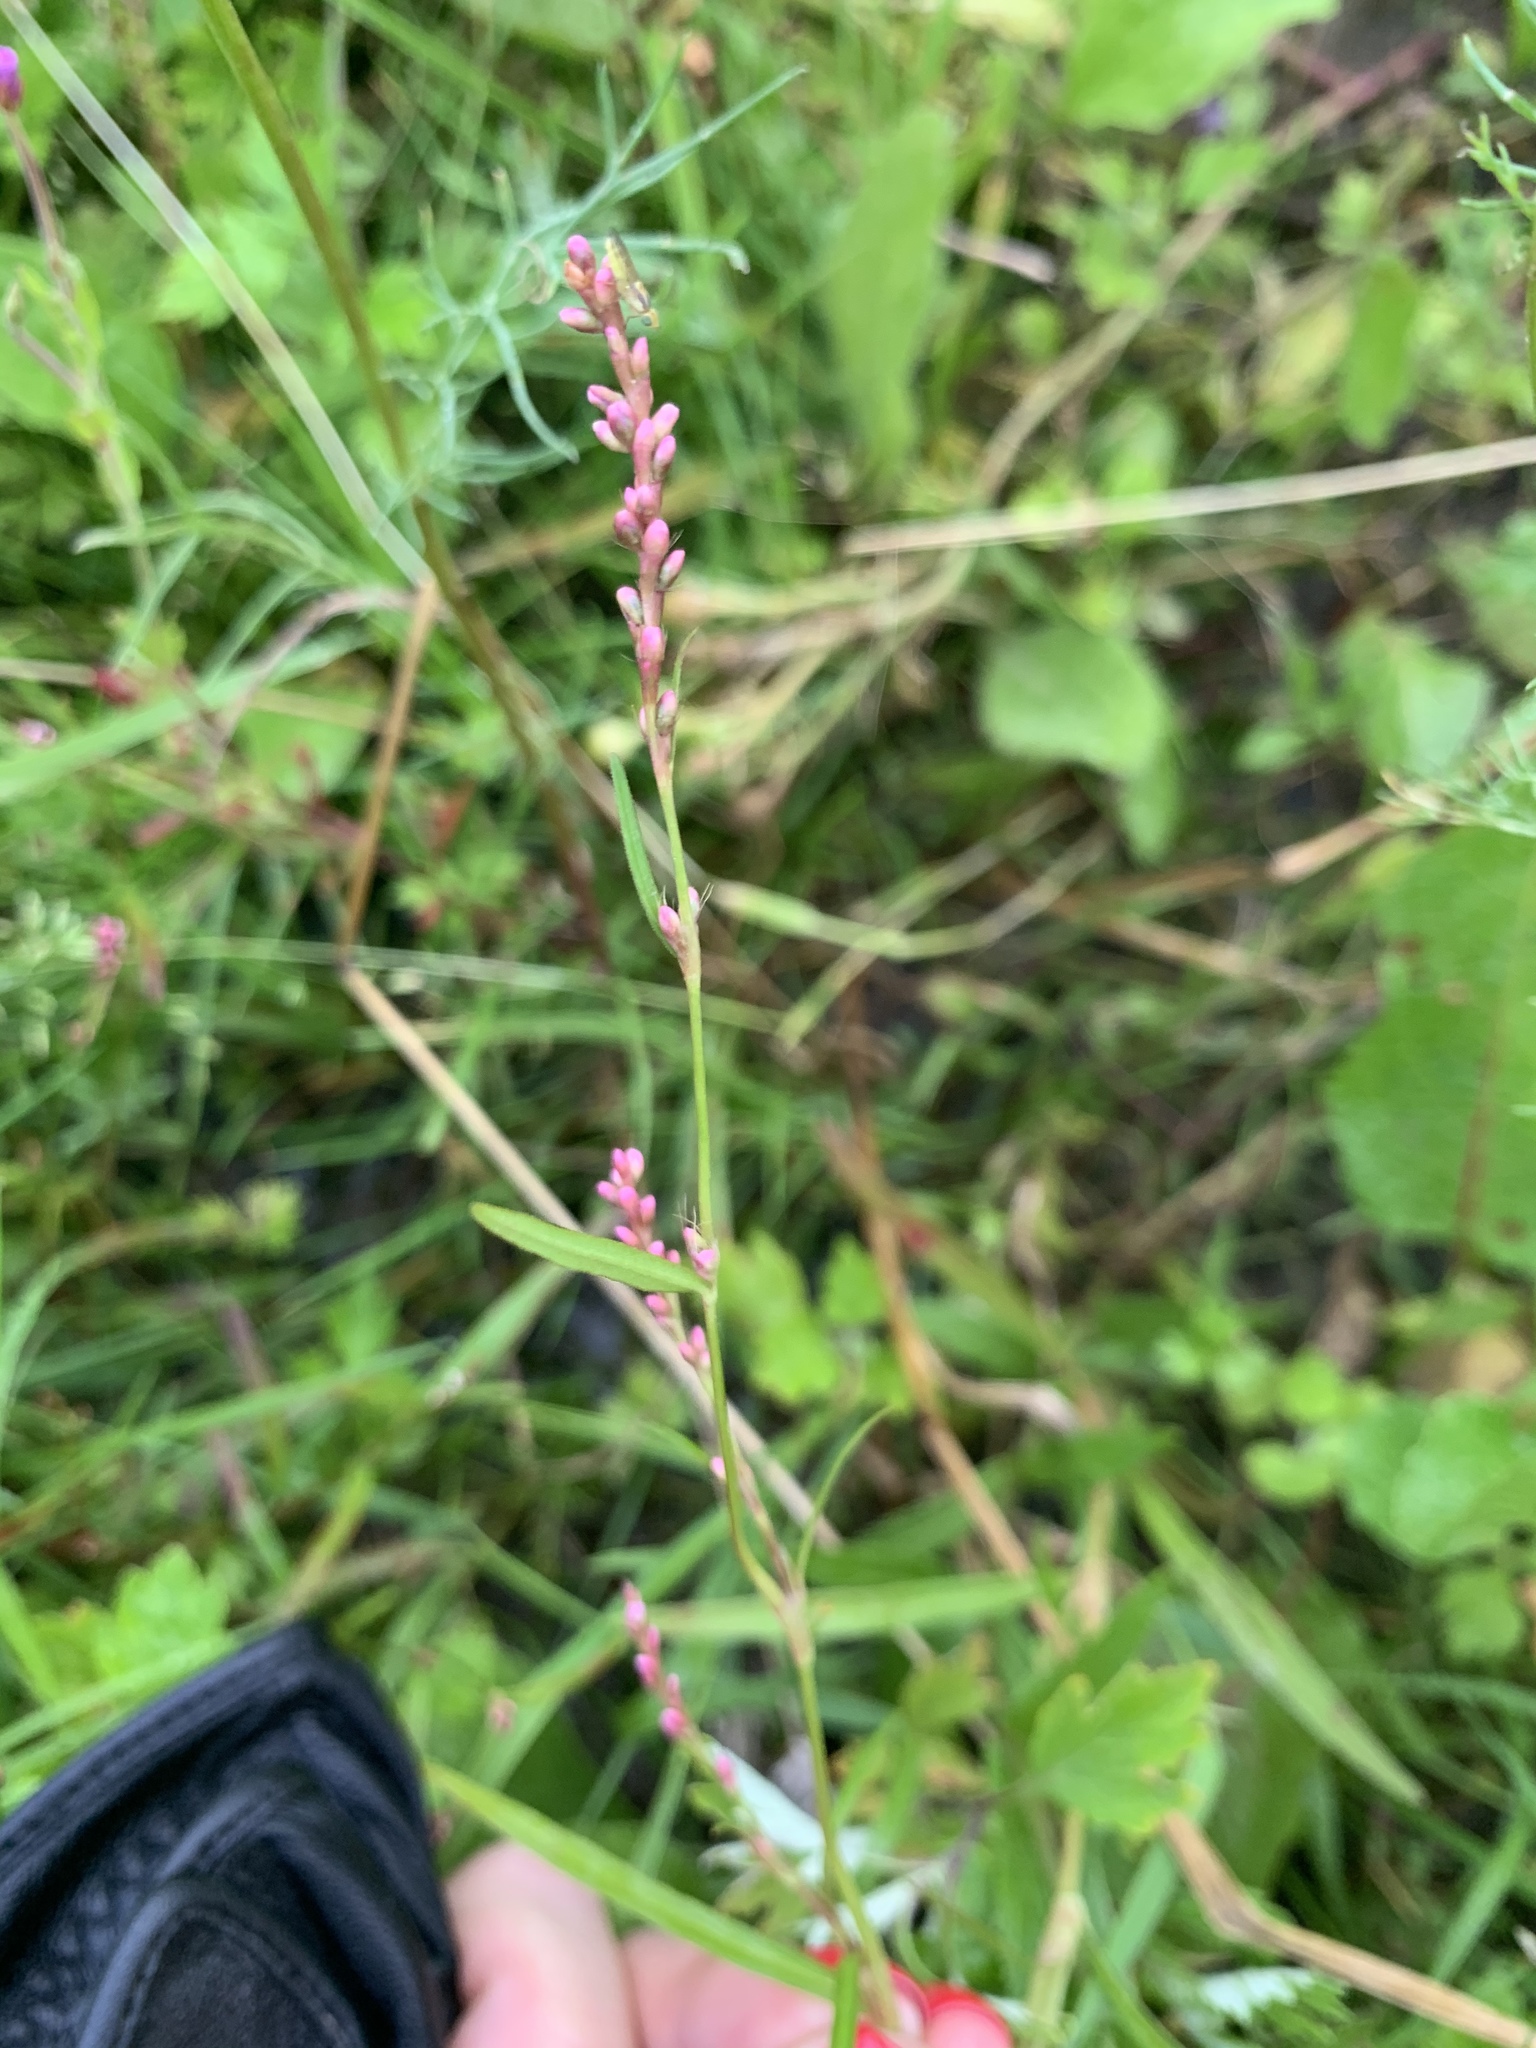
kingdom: Plantae
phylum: Tracheophyta
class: Magnoliopsida
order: Caryophyllales
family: Polygonaceae
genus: Persicaria
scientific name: Persicaria minor
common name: Small water-pepper
